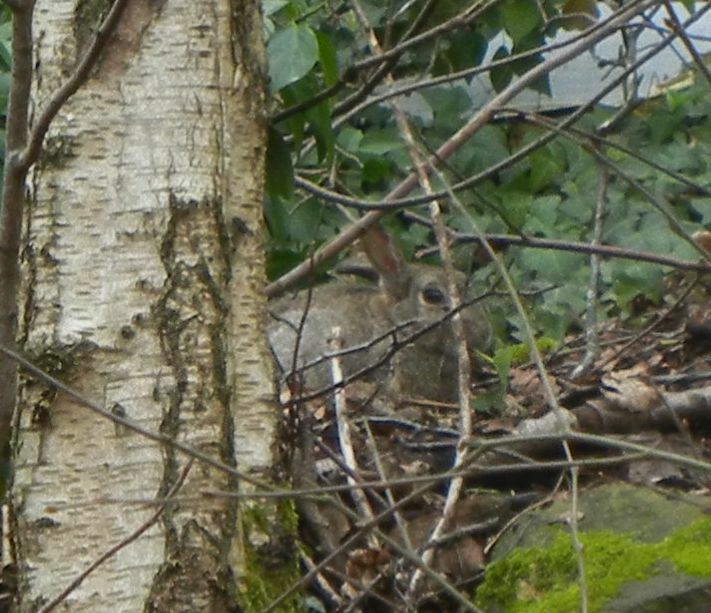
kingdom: Animalia
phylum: Chordata
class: Mammalia
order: Lagomorpha
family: Leporidae
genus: Oryctolagus
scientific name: Oryctolagus cuniculus
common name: European rabbit
